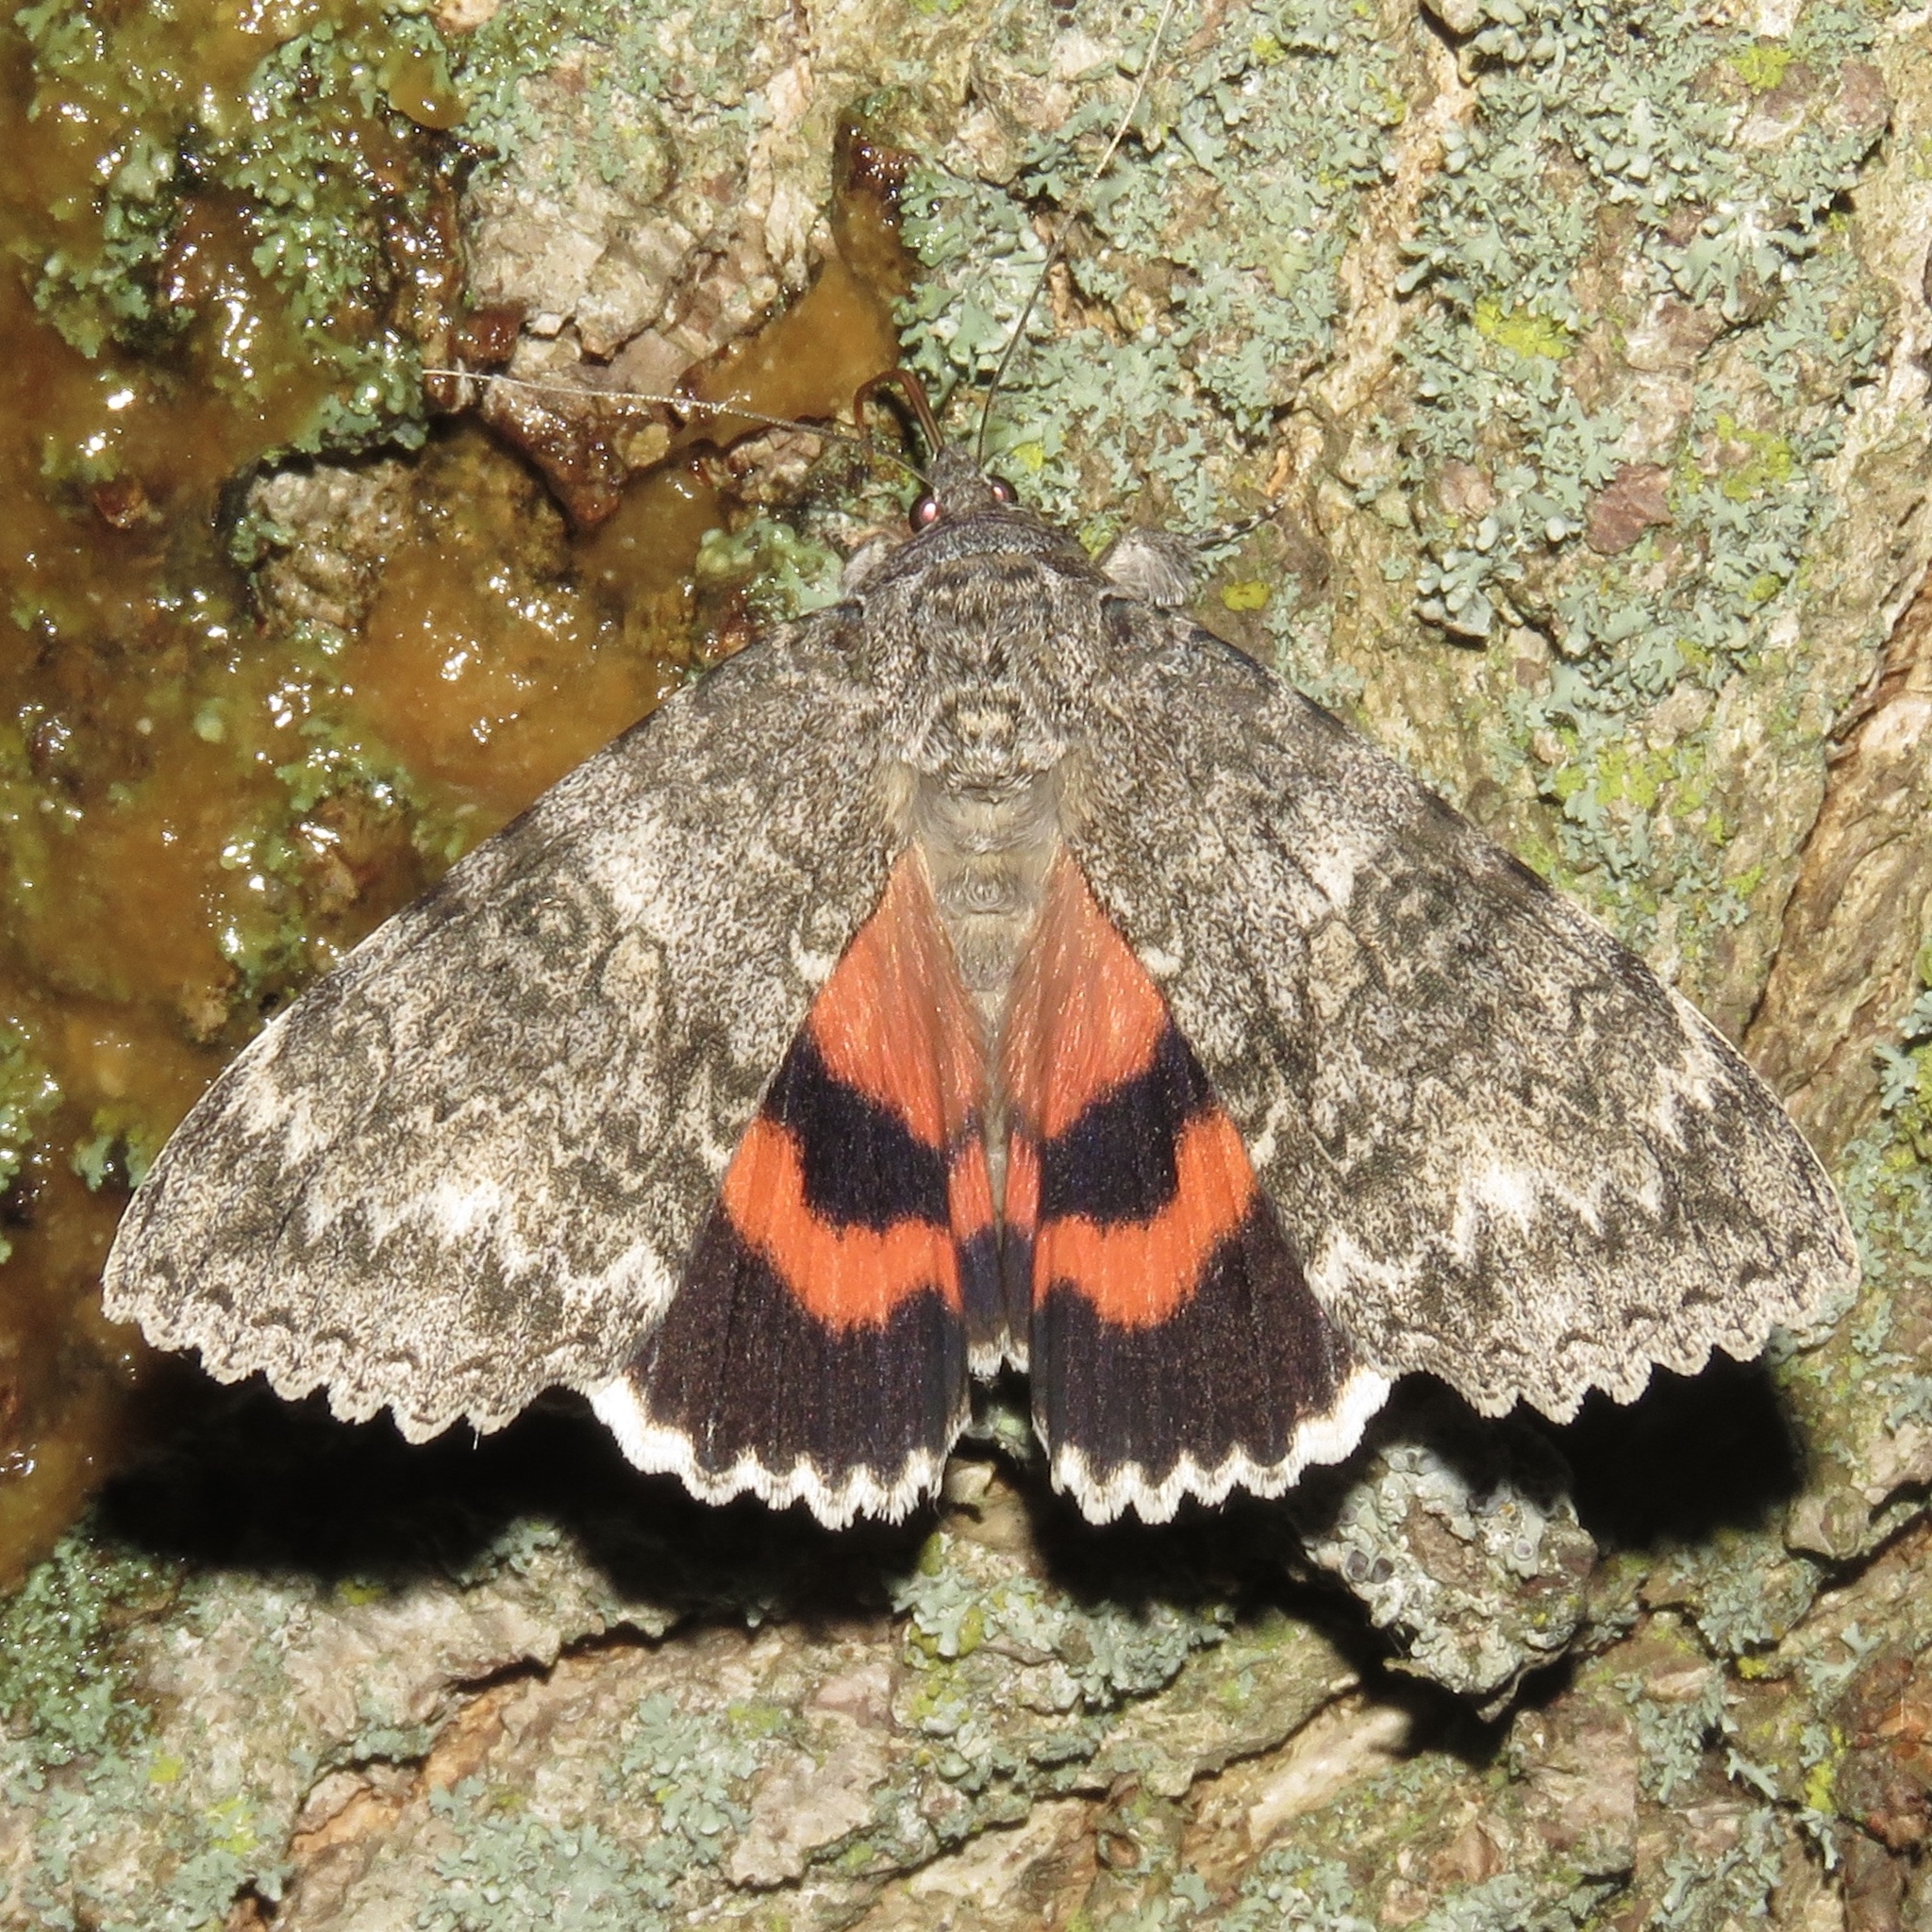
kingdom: Animalia
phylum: Arthropoda
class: Insecta
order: Lepidoptera
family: Erebidae
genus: Catocala
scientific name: Catocala unijuga
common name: Once-married underwing
